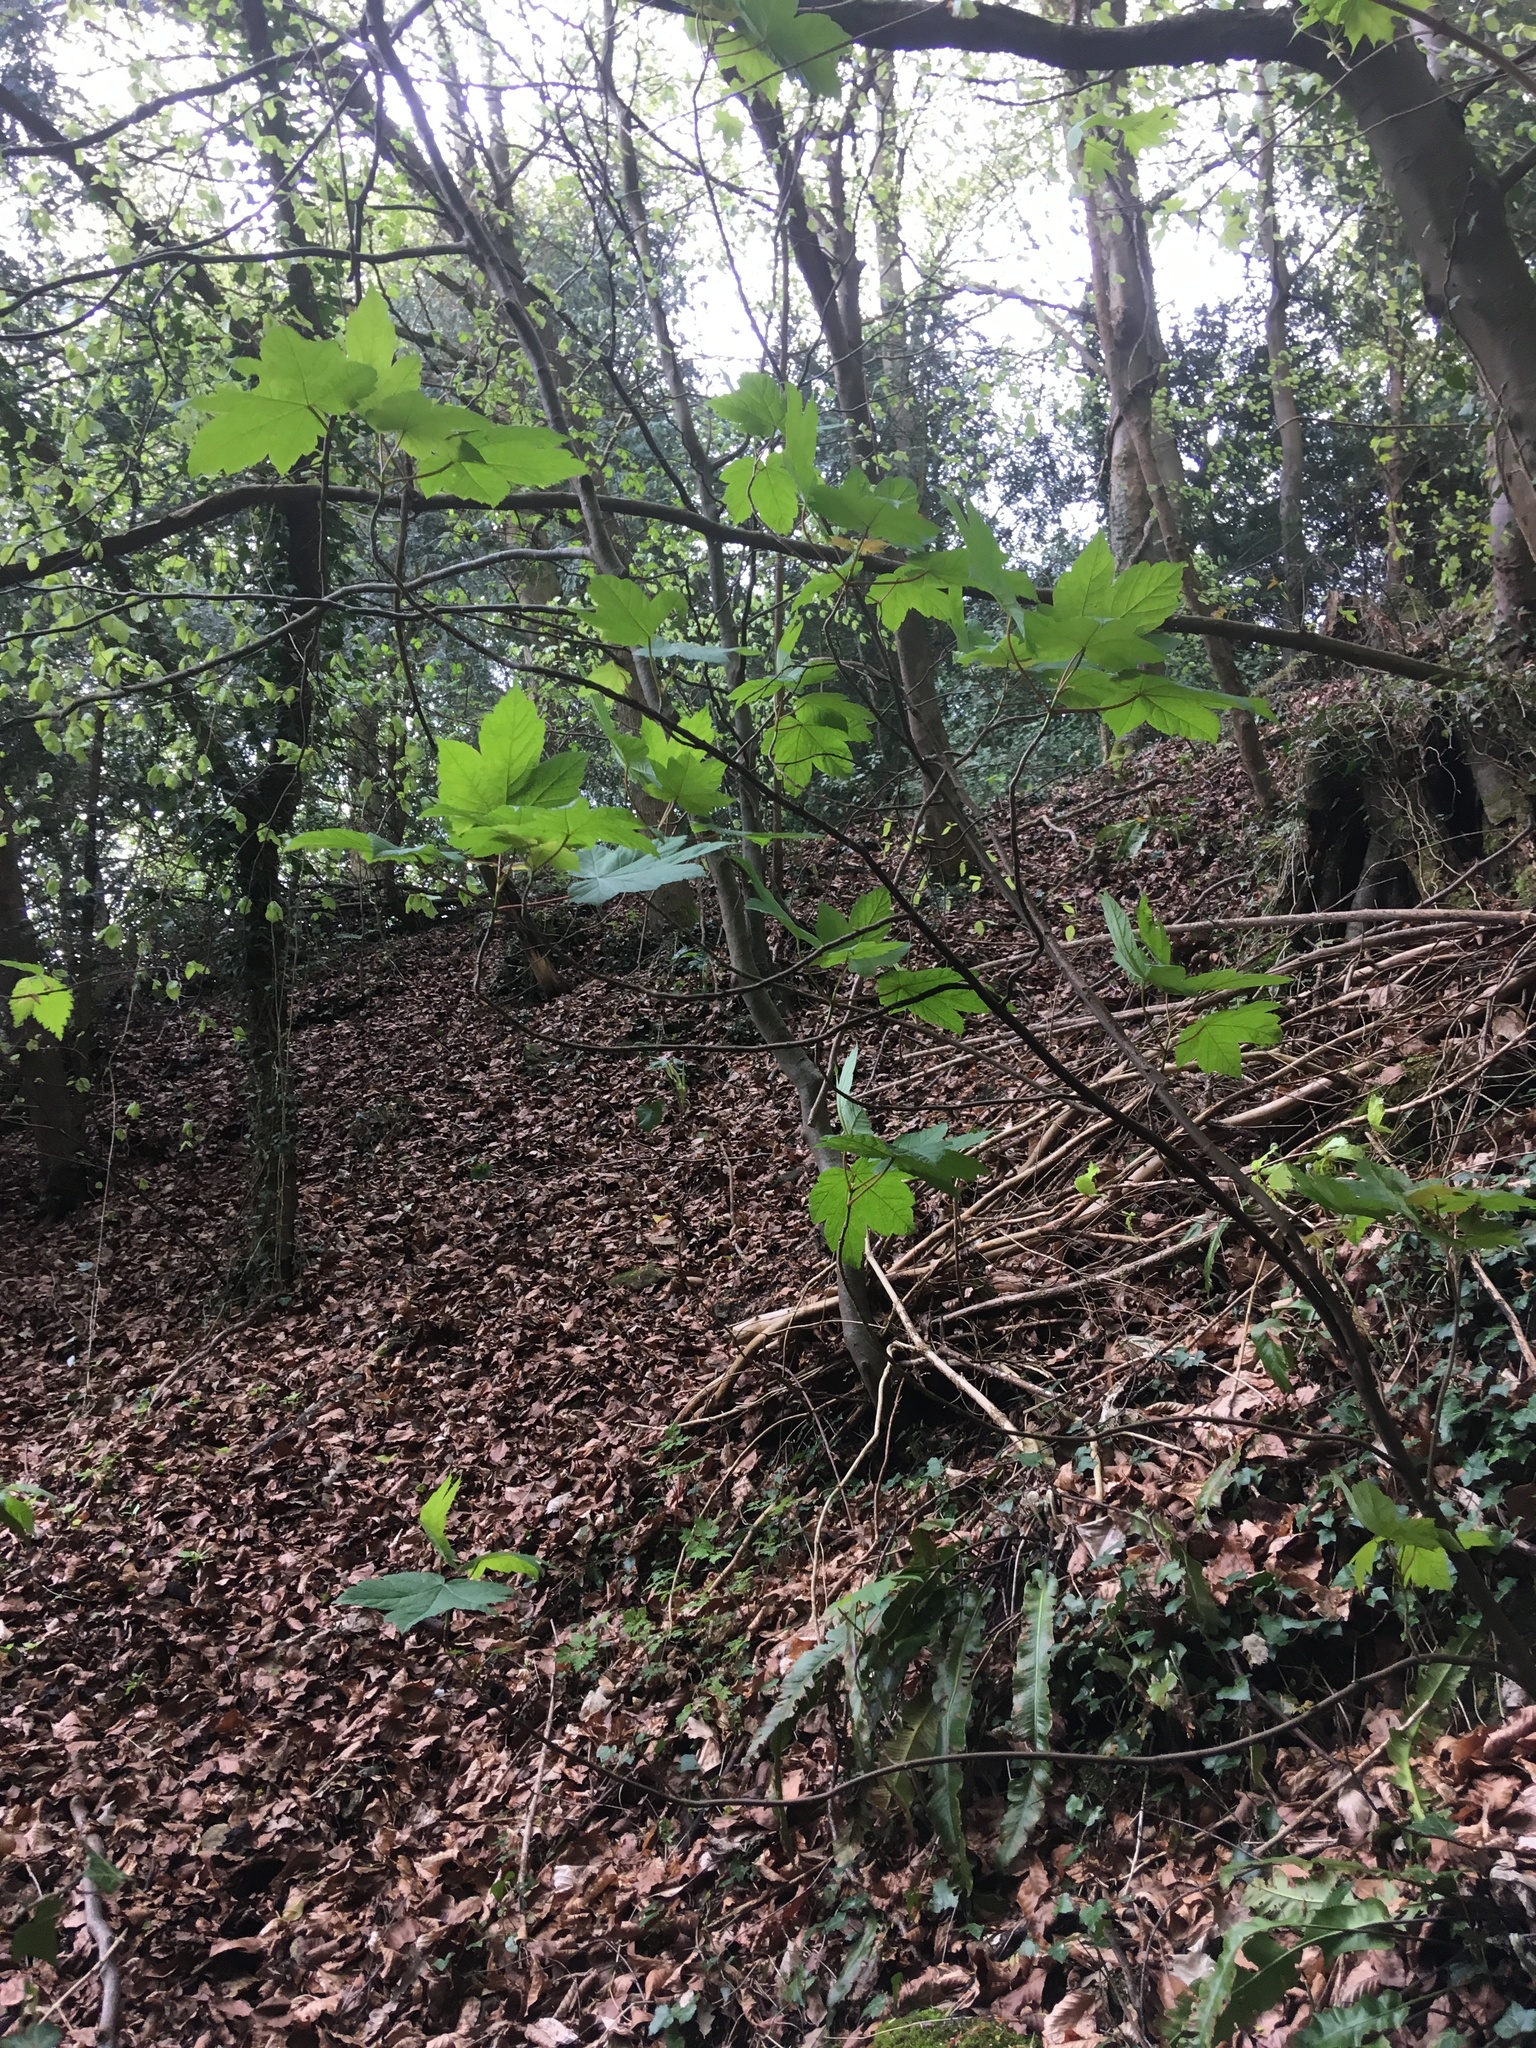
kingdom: Plantae
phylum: Tracheophyta
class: Magnoliopsida
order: Sapindales
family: Sapindaceae
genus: Acer
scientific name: Acer pseudoplatanus
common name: Sycamore
